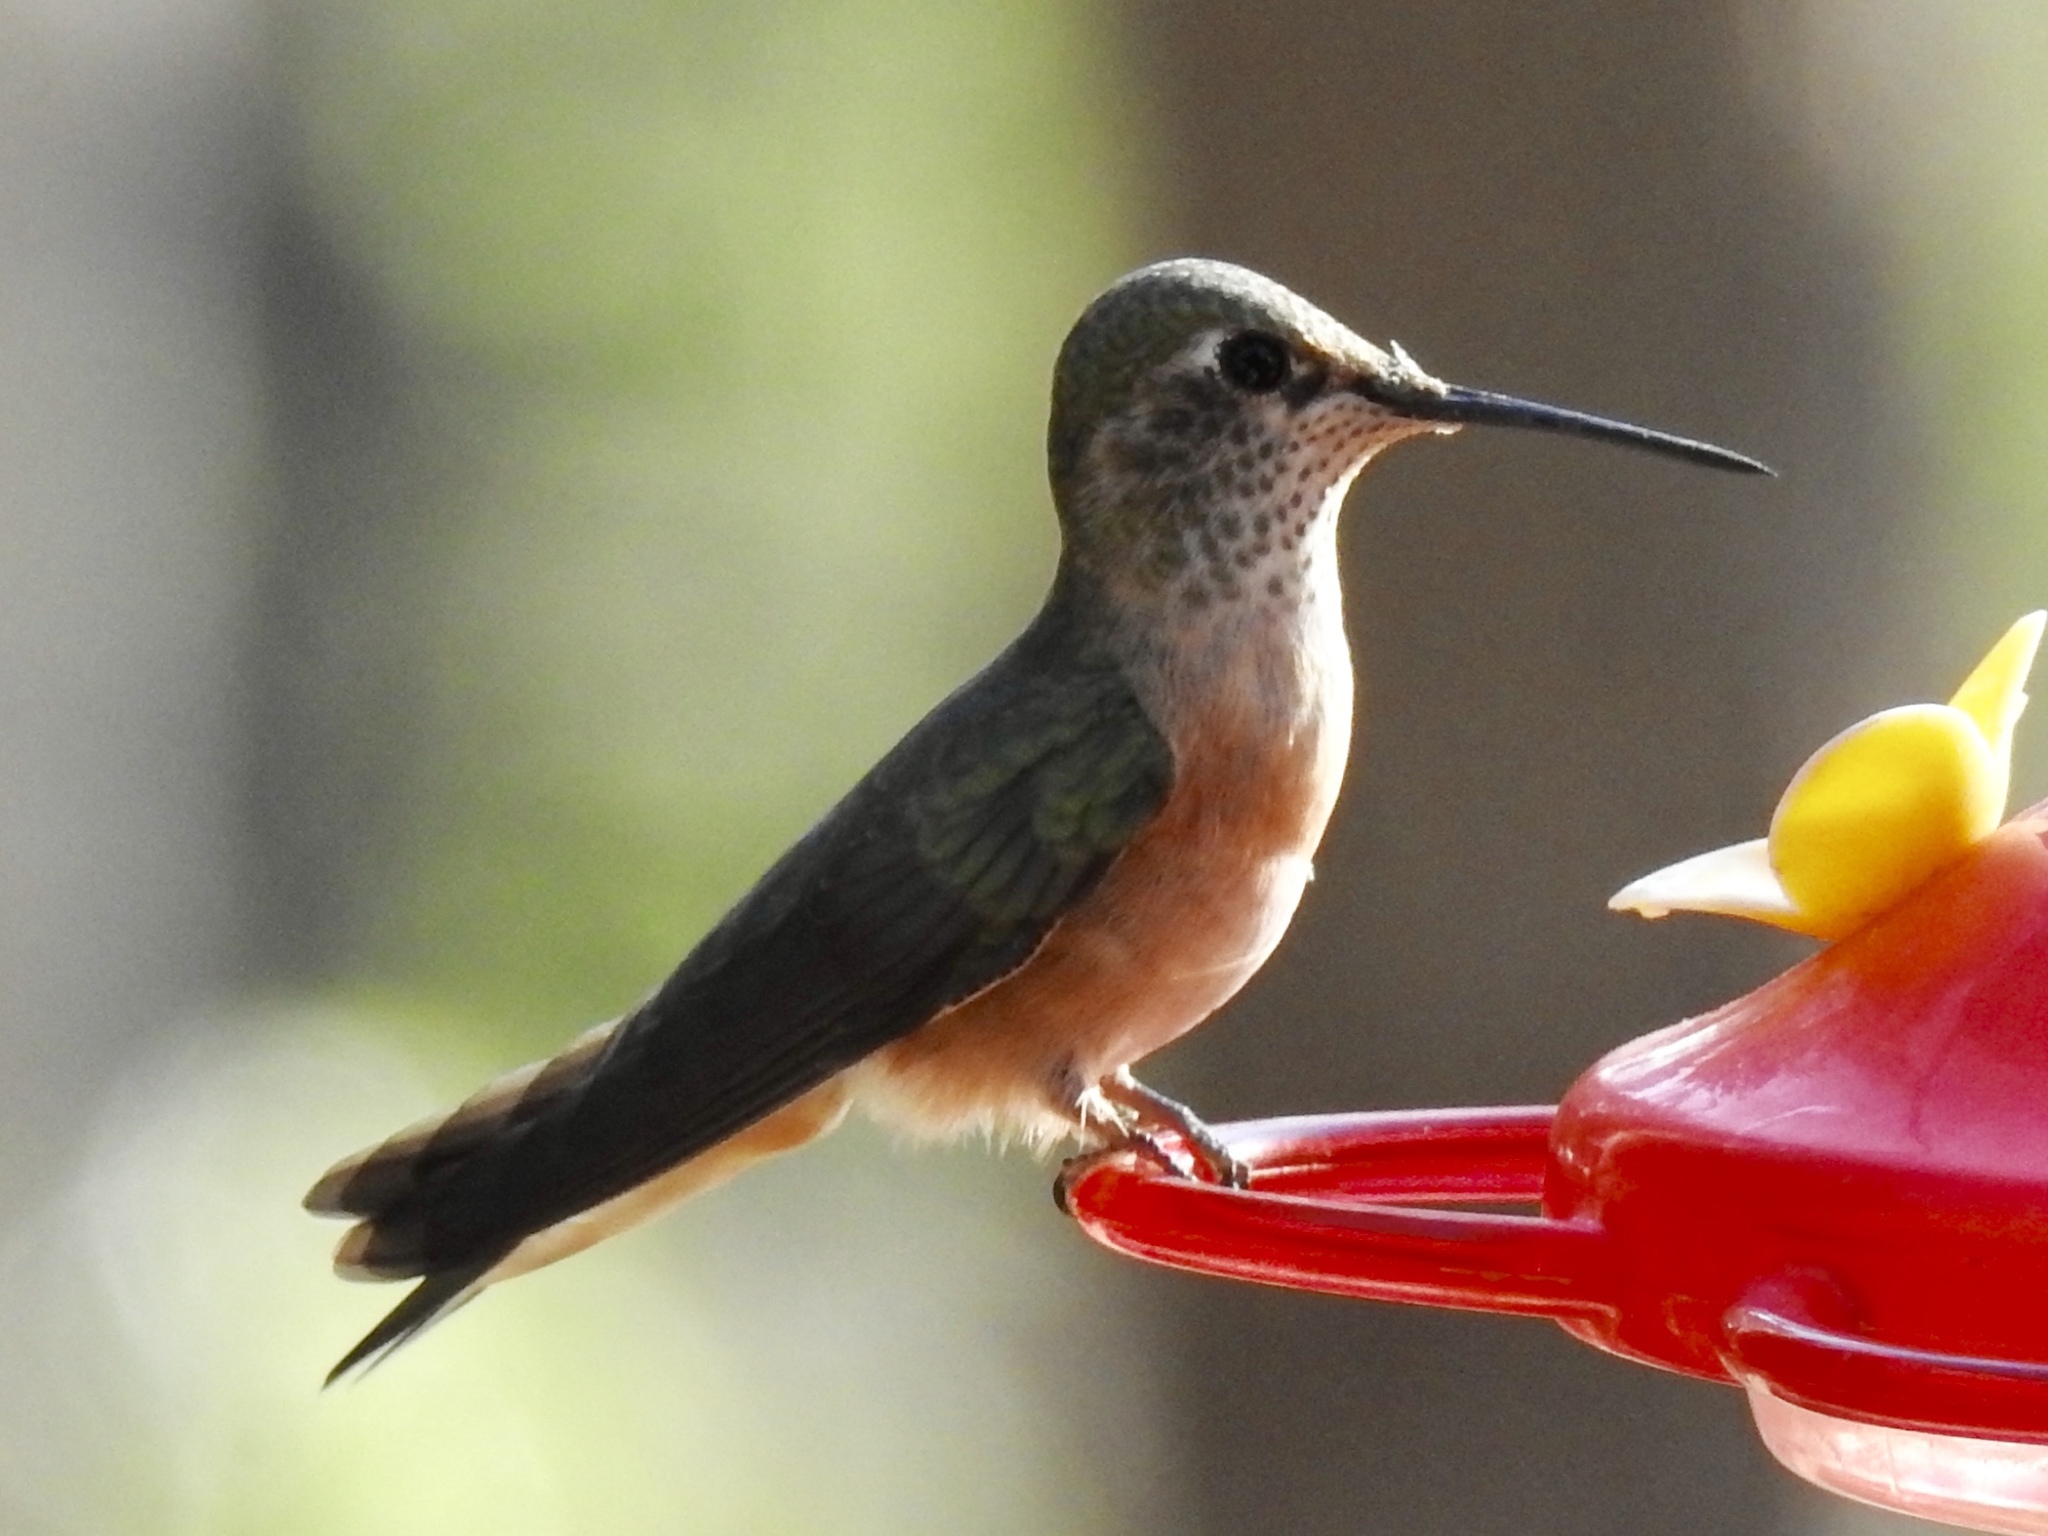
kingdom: Animalia
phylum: Chordata
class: Aves
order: Apodiformes
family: Trochilidae
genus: Selasphorus
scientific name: Selasphorus platycercus
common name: Broad-tailed hummingbird
